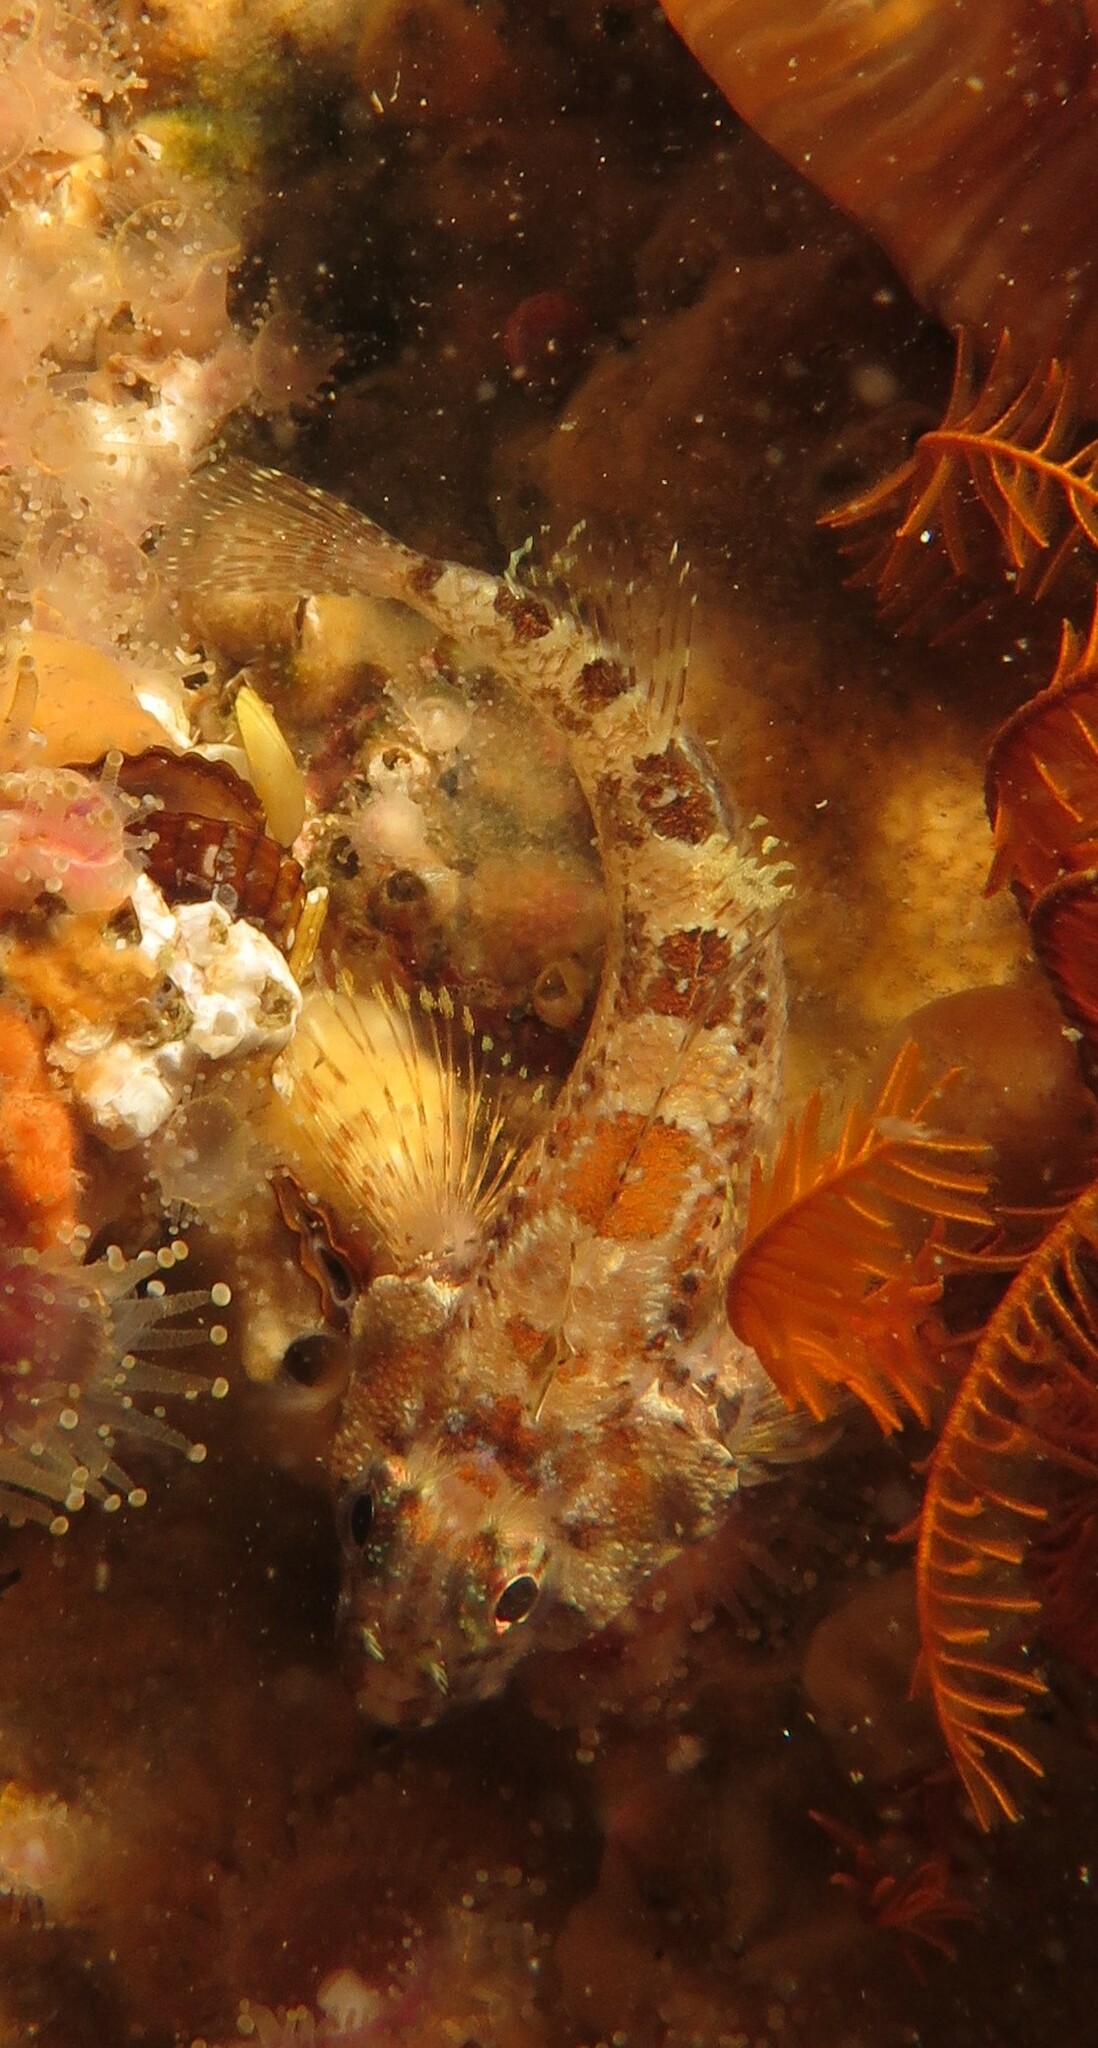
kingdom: Animalia
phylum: Chordata
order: Perciformes
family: Tripterygiidae
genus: Cremnochorites
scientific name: Cremnochorites capensis
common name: Cape triplefin
